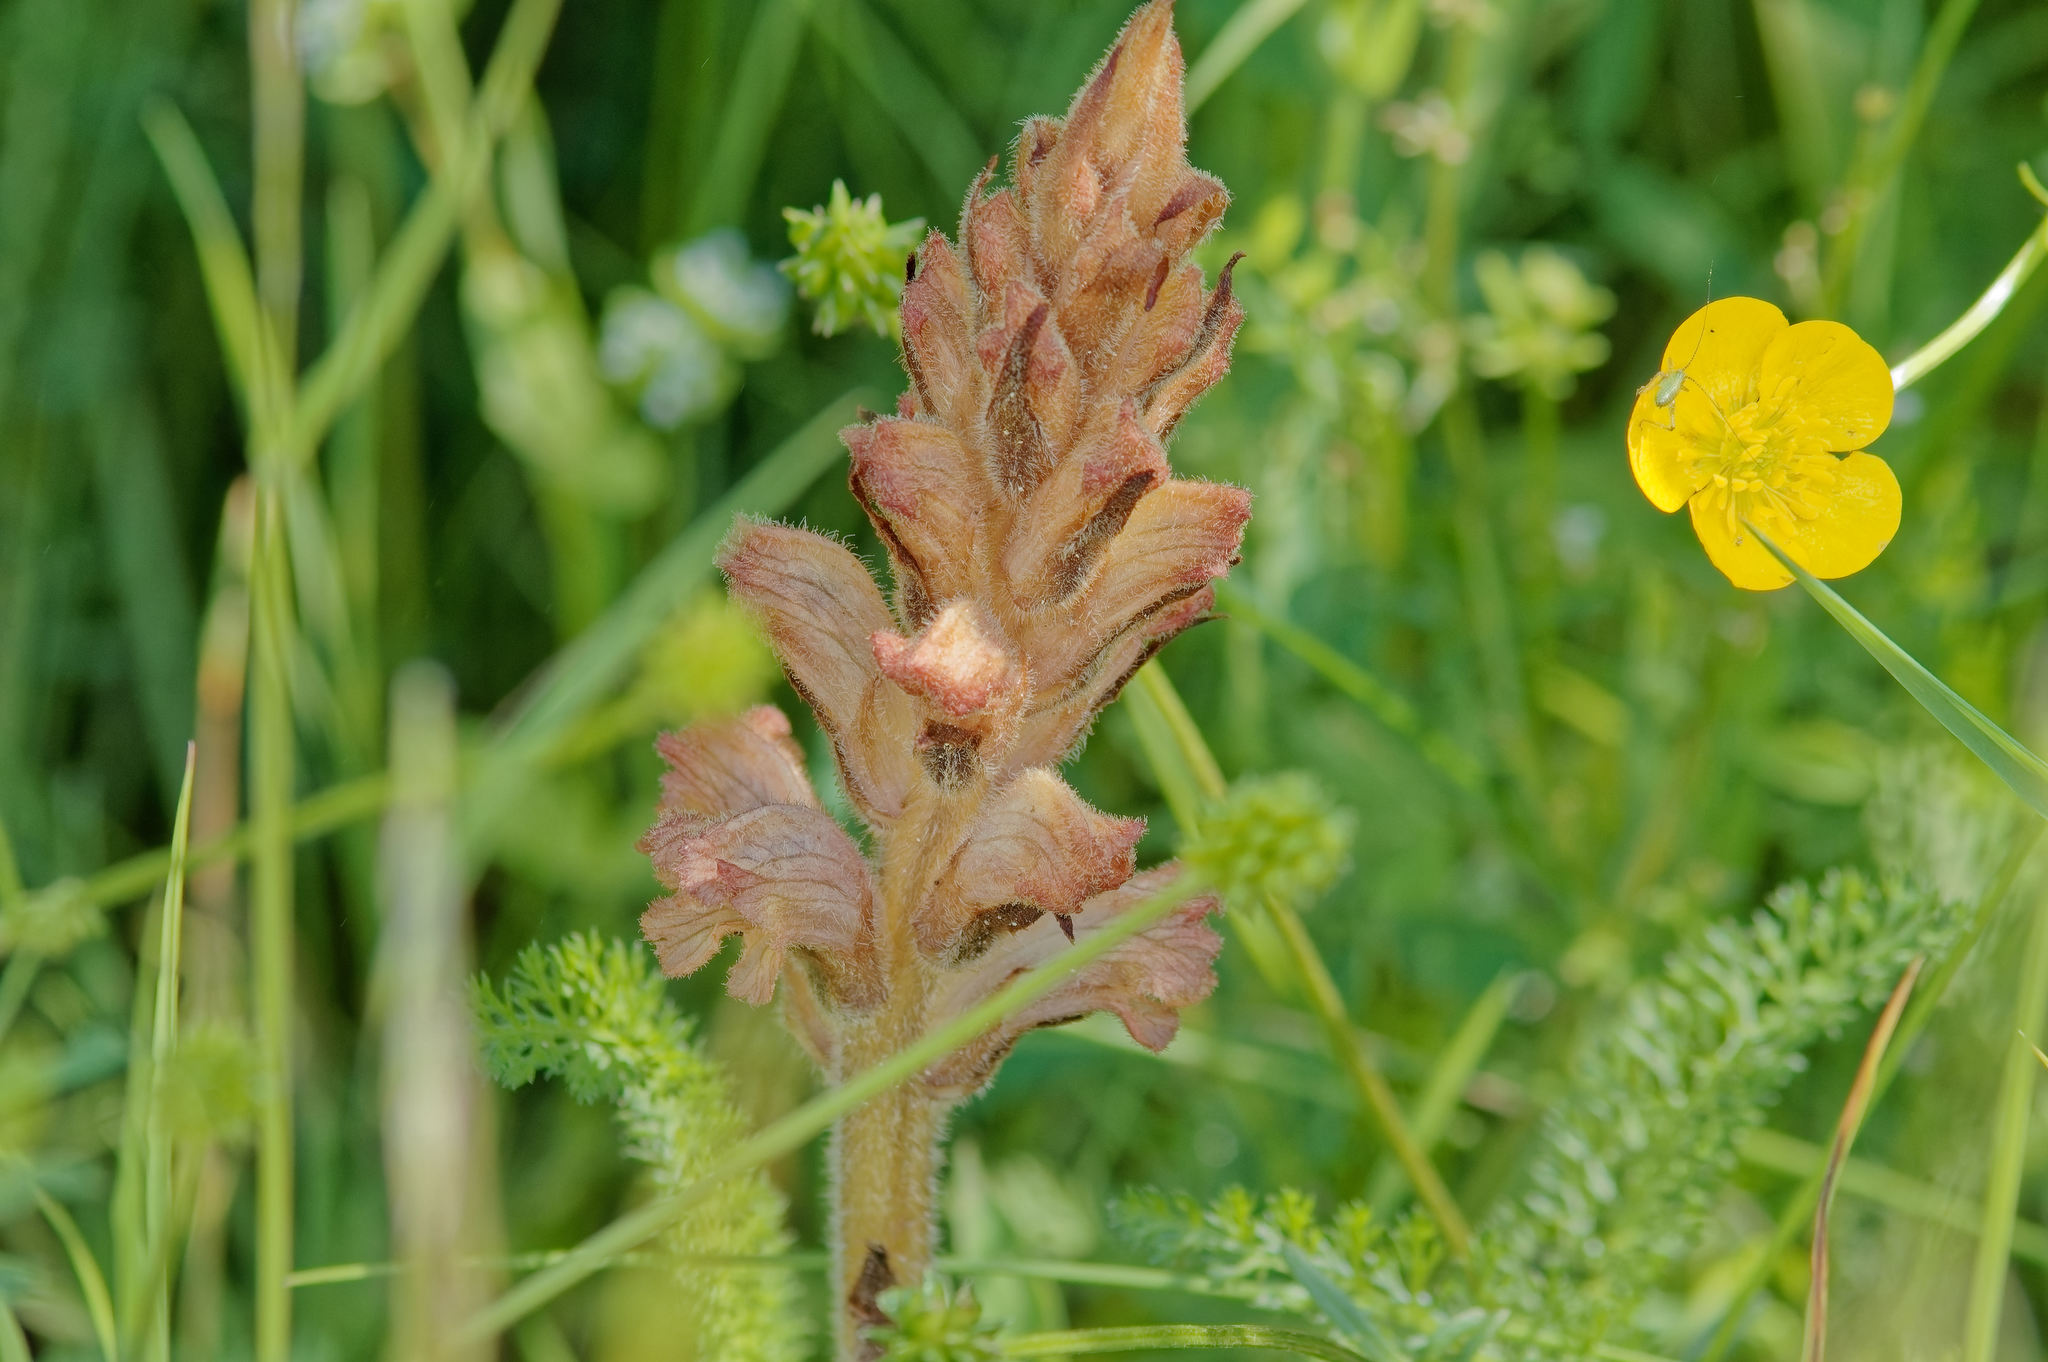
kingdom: Plantae
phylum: Tracheophyta
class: Magnoliopsida
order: Lamiales
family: Orobanchaceae
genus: Orobanche
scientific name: Orobanche caryophyllacea
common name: Bedstraw broomrape
